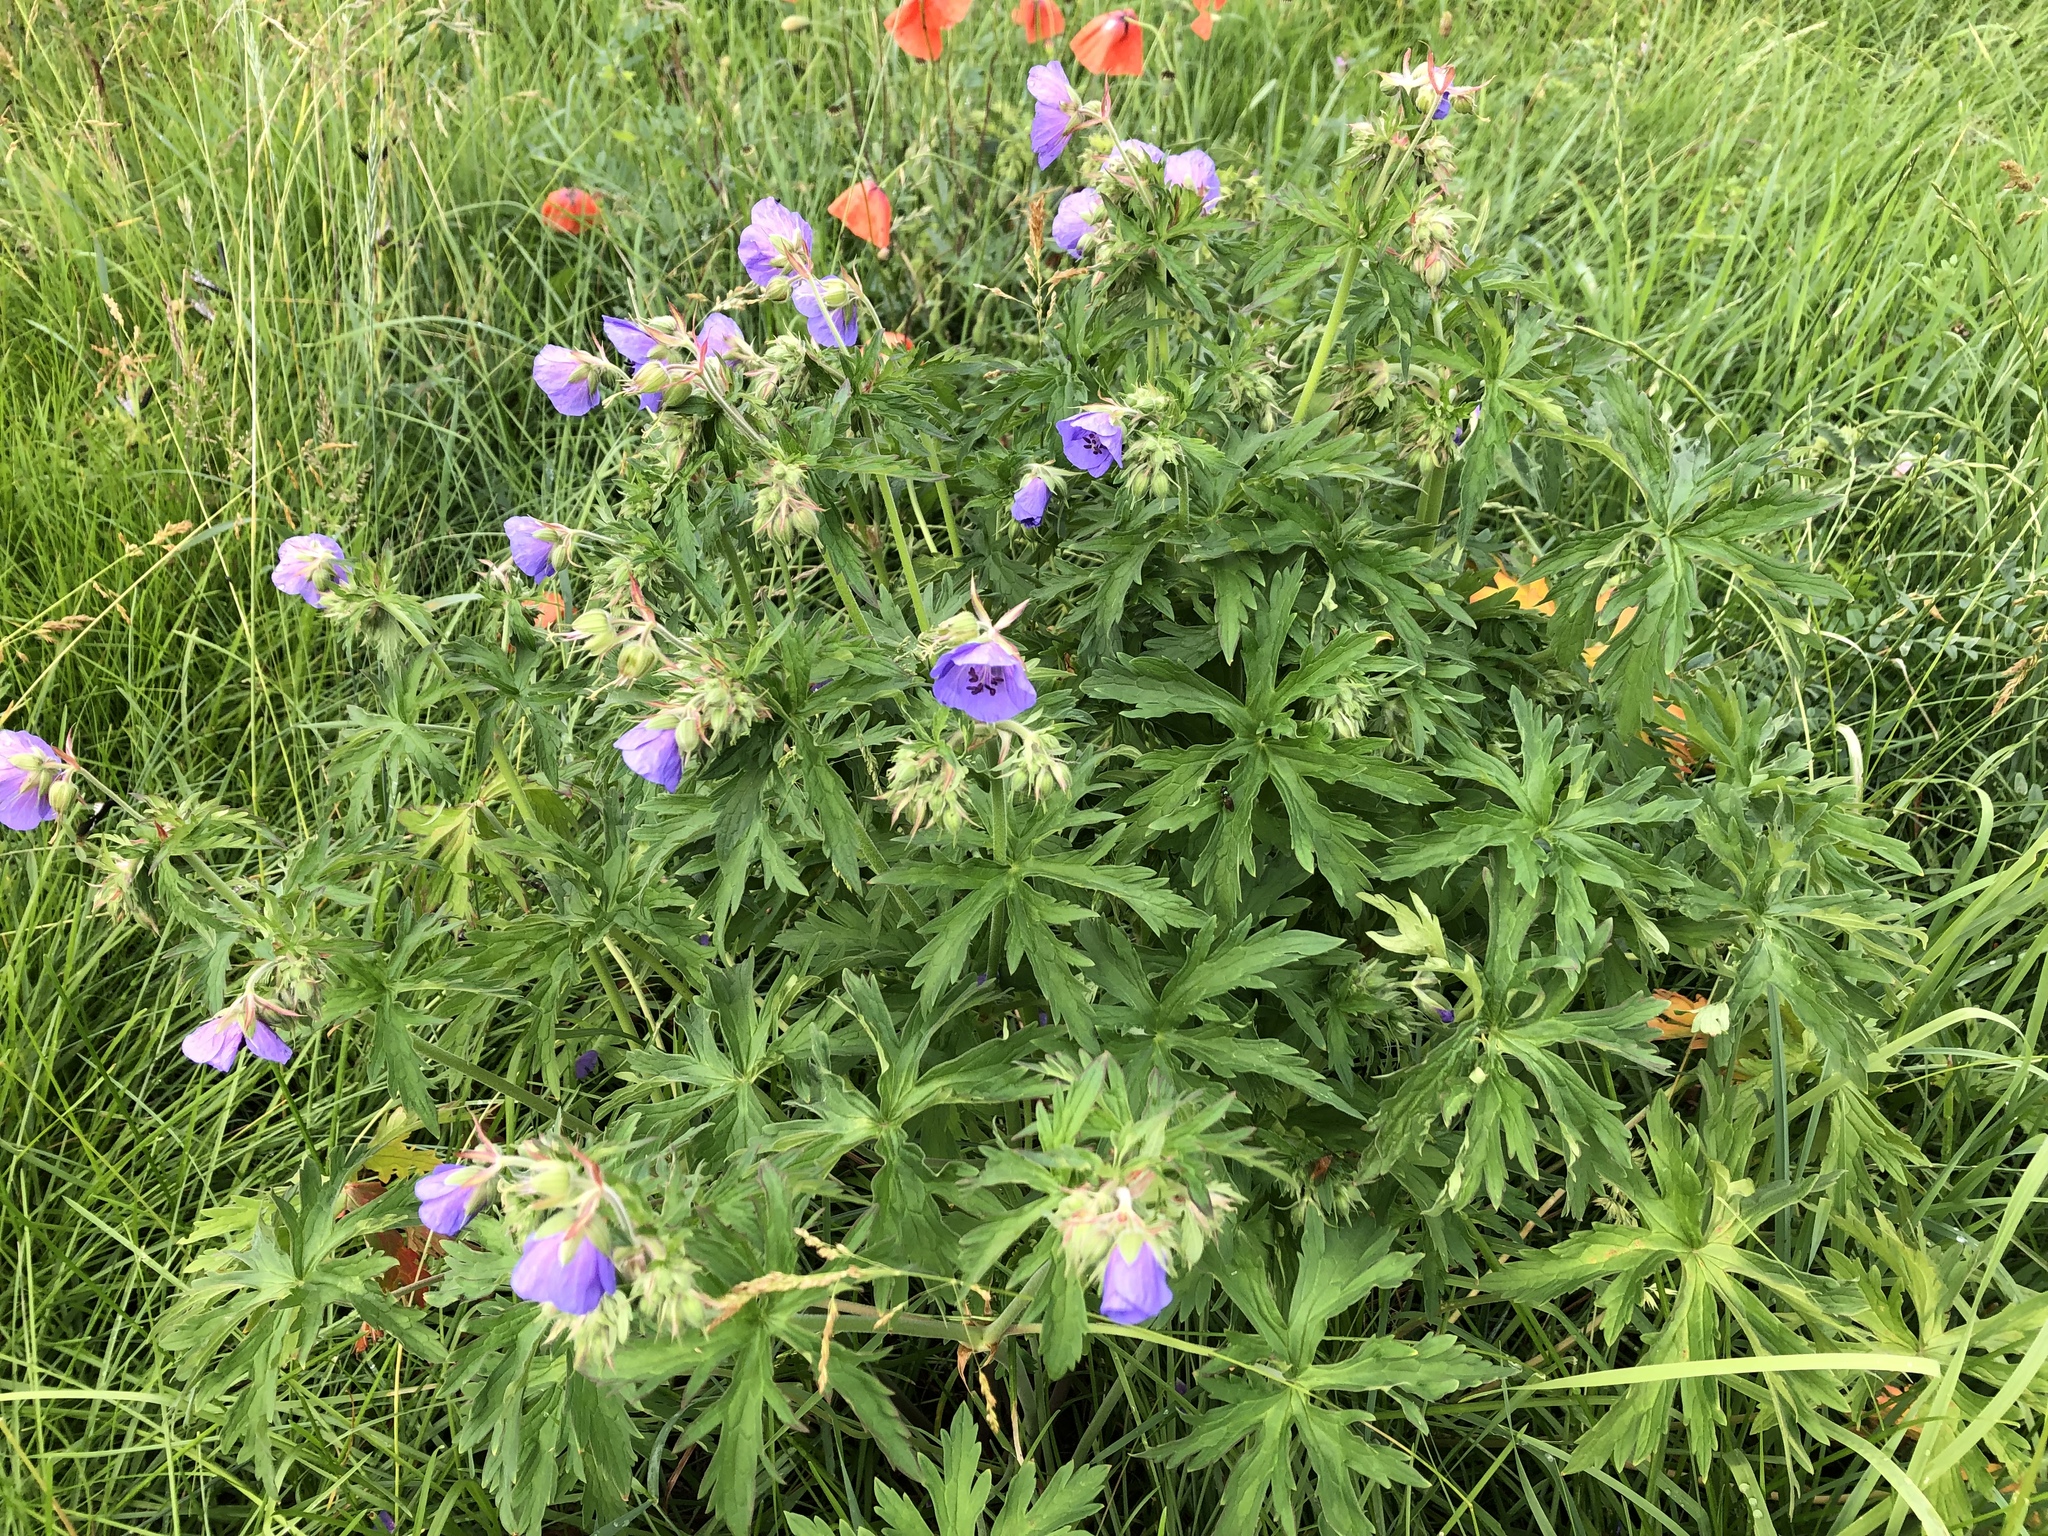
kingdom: Plantae
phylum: Tracheophyta
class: Magnoliopsida
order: Geraniales
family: Geraniaceae
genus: Geranium
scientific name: Geranium pratense
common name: Meadow crane's-bill
